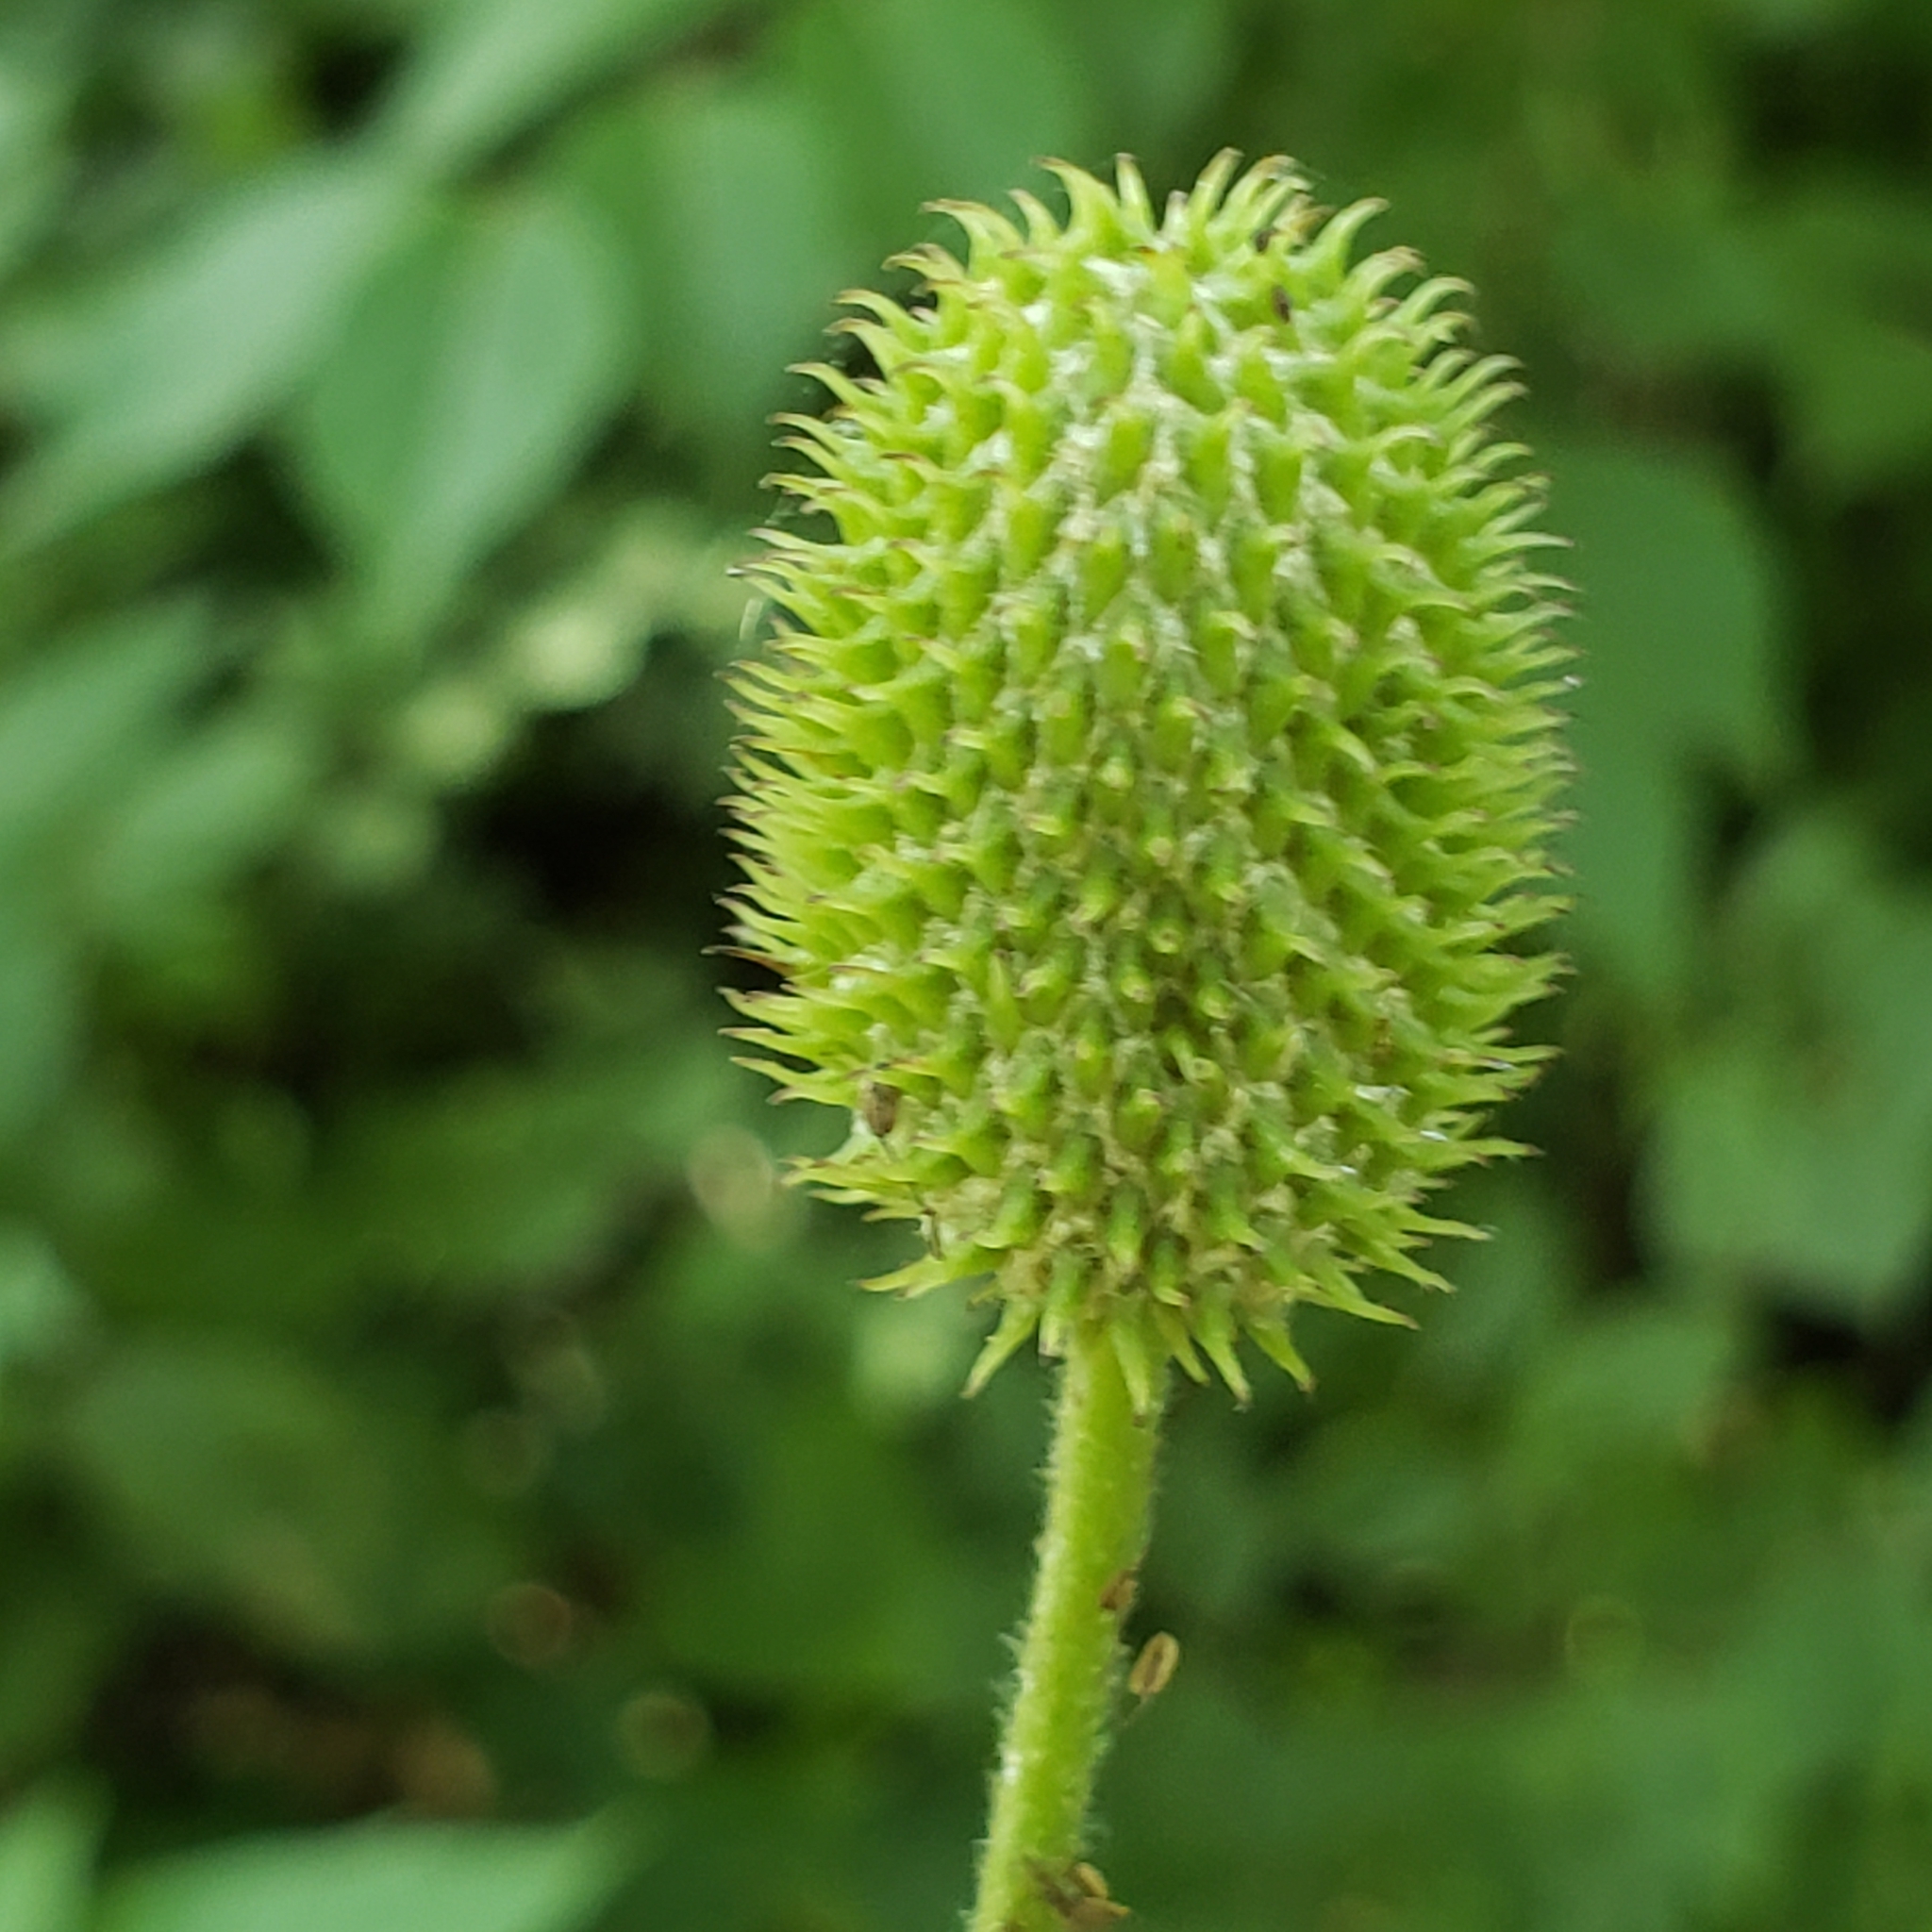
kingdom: Plantae
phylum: Tracheophyta
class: Magnoliopsida
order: Ranunculales
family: Ranunculaceae
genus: Anemone
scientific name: Anemone virginiana
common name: Tall anemone
